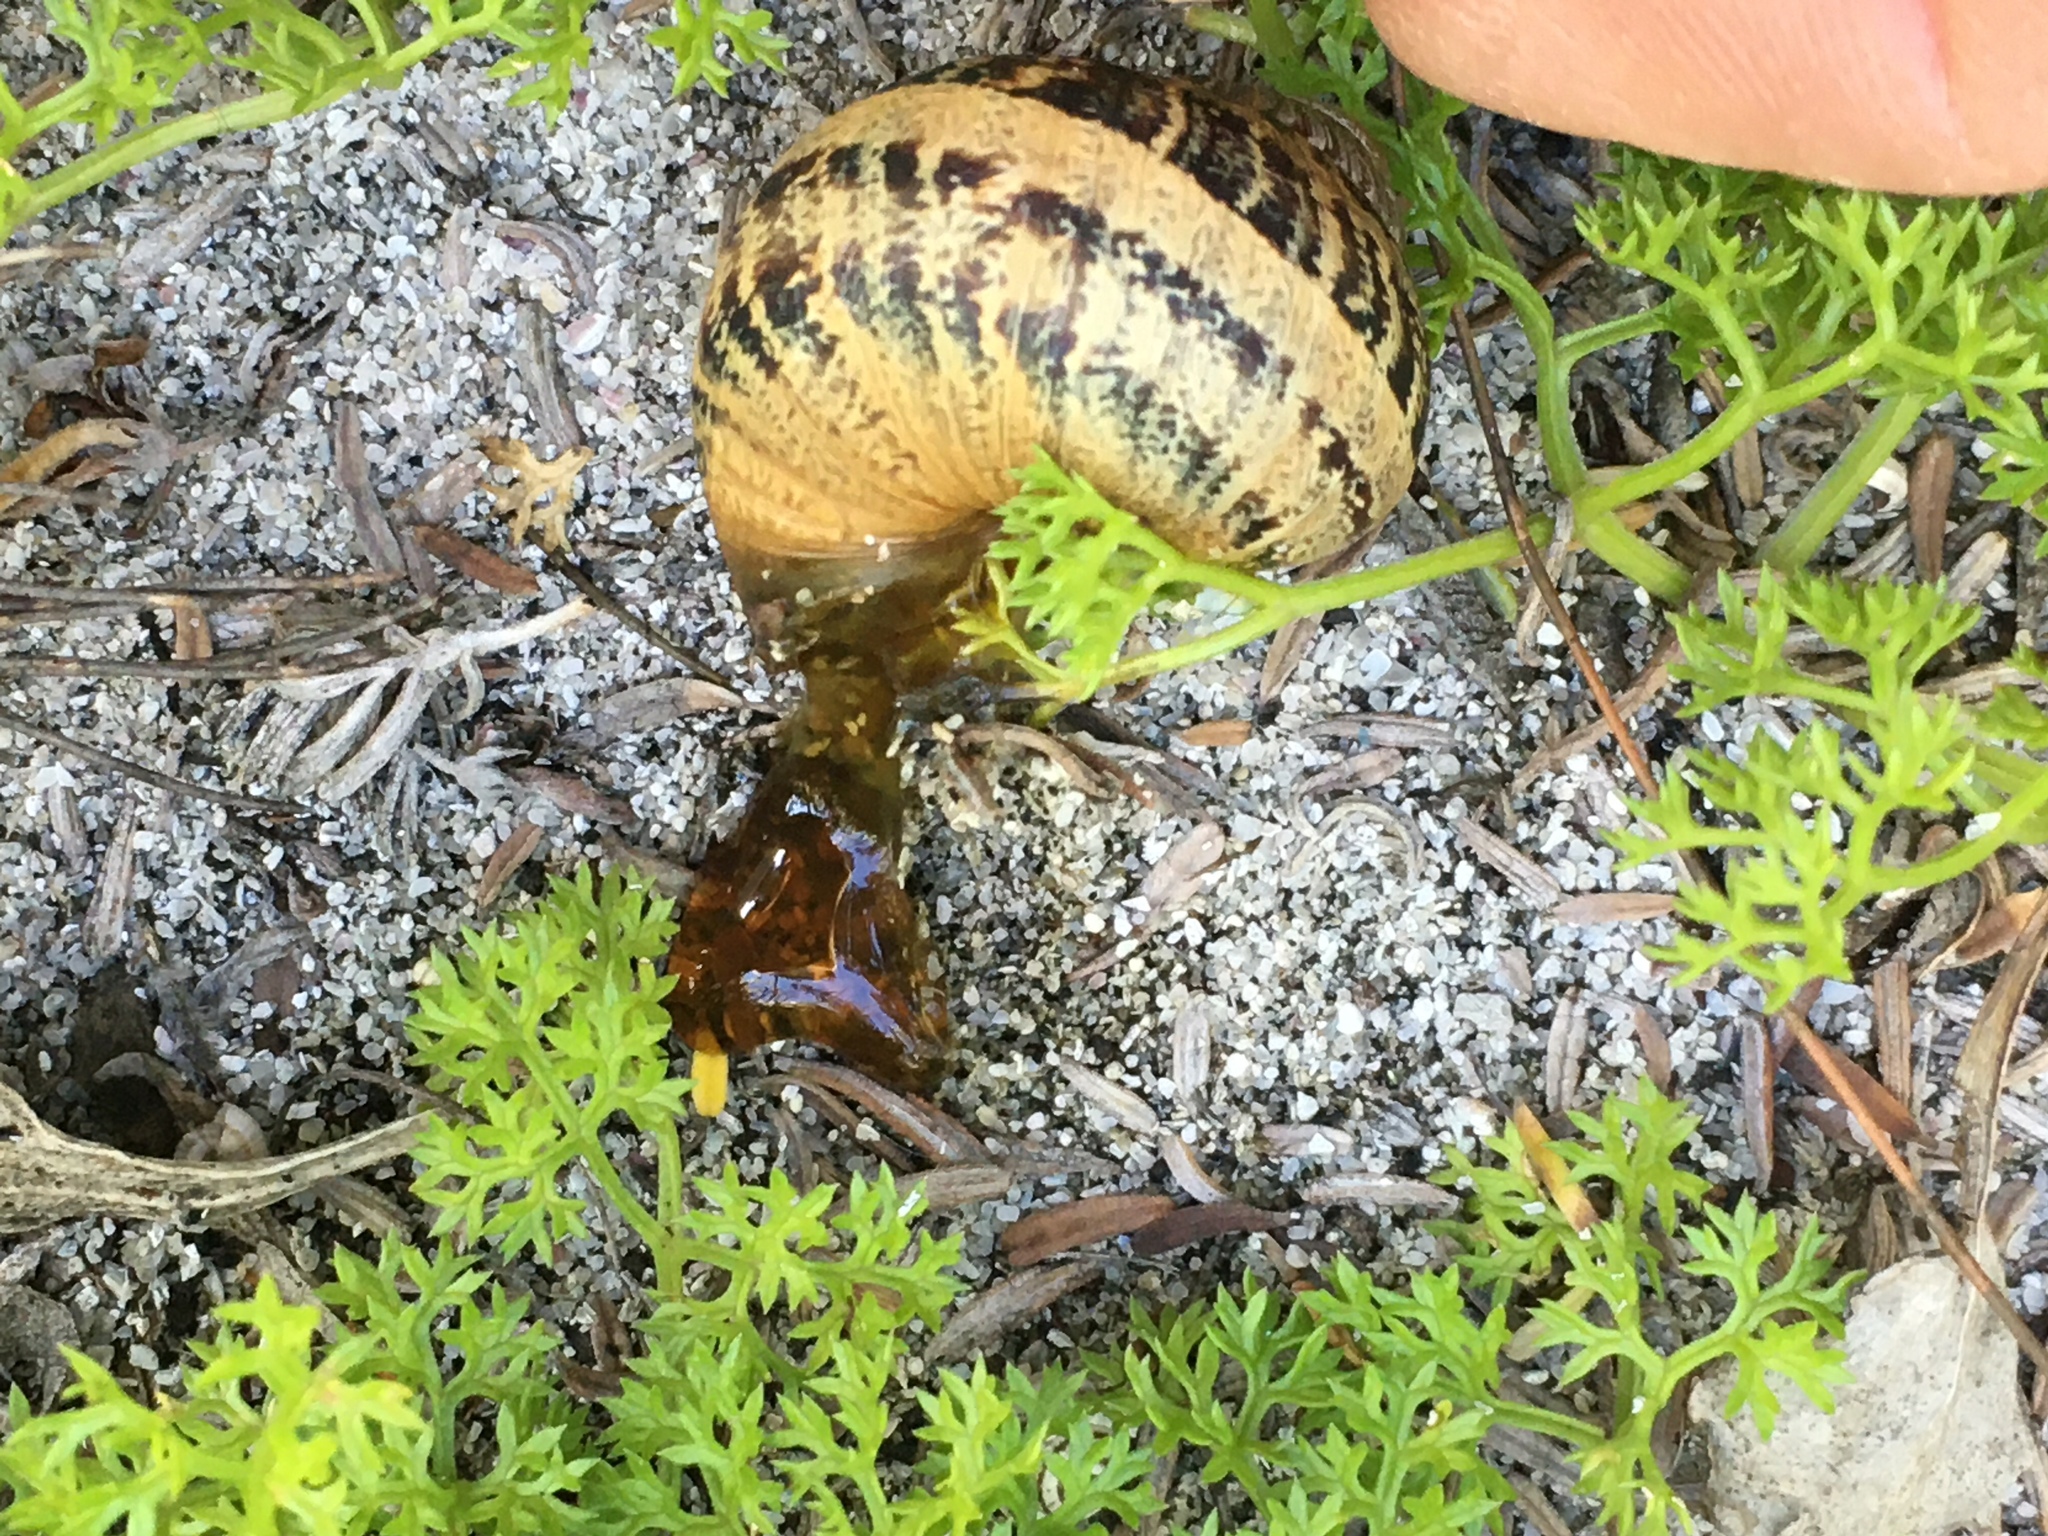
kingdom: Animalia
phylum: Mollusca
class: Gastropoda
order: Stylommatophora
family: Helicidae
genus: Cornu
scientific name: Cornu aspersum
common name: Brown garden snail
